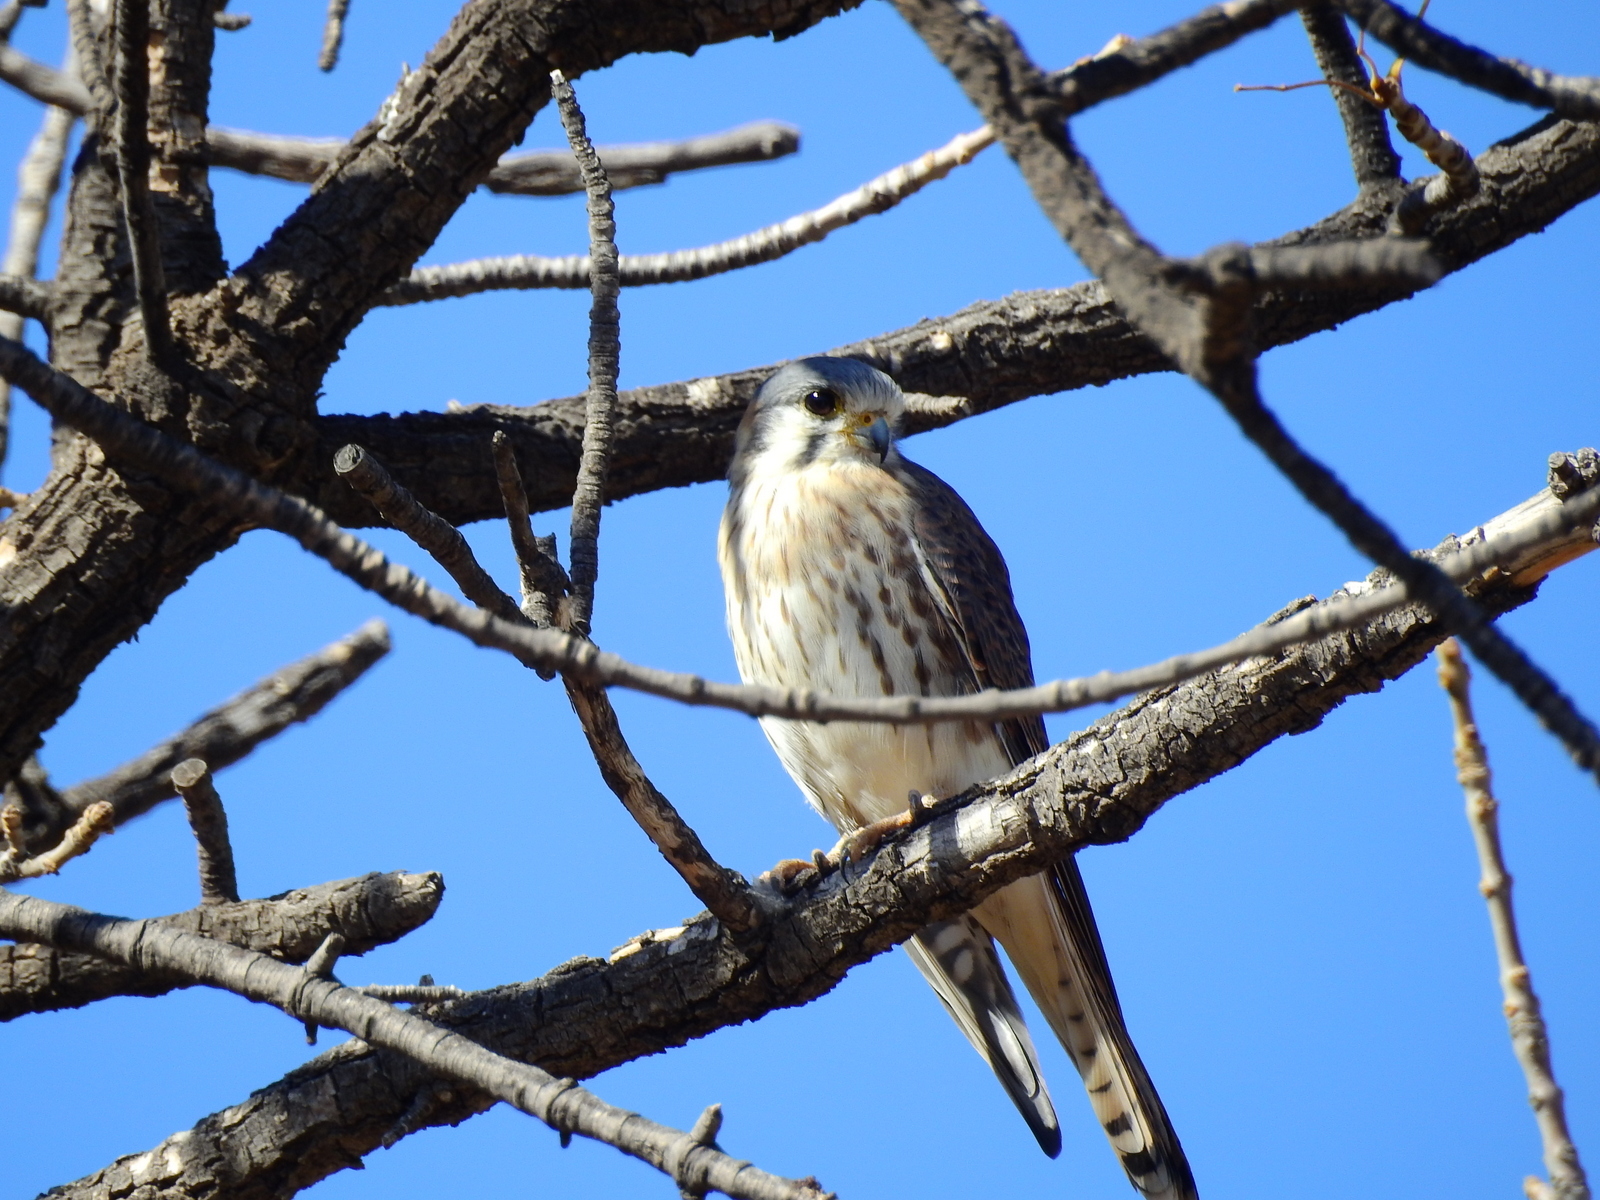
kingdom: Animalia
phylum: Chordata
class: Aves
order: Falconiformes
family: Falconidae
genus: Falco
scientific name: Falco sparverius
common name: American kestrel
